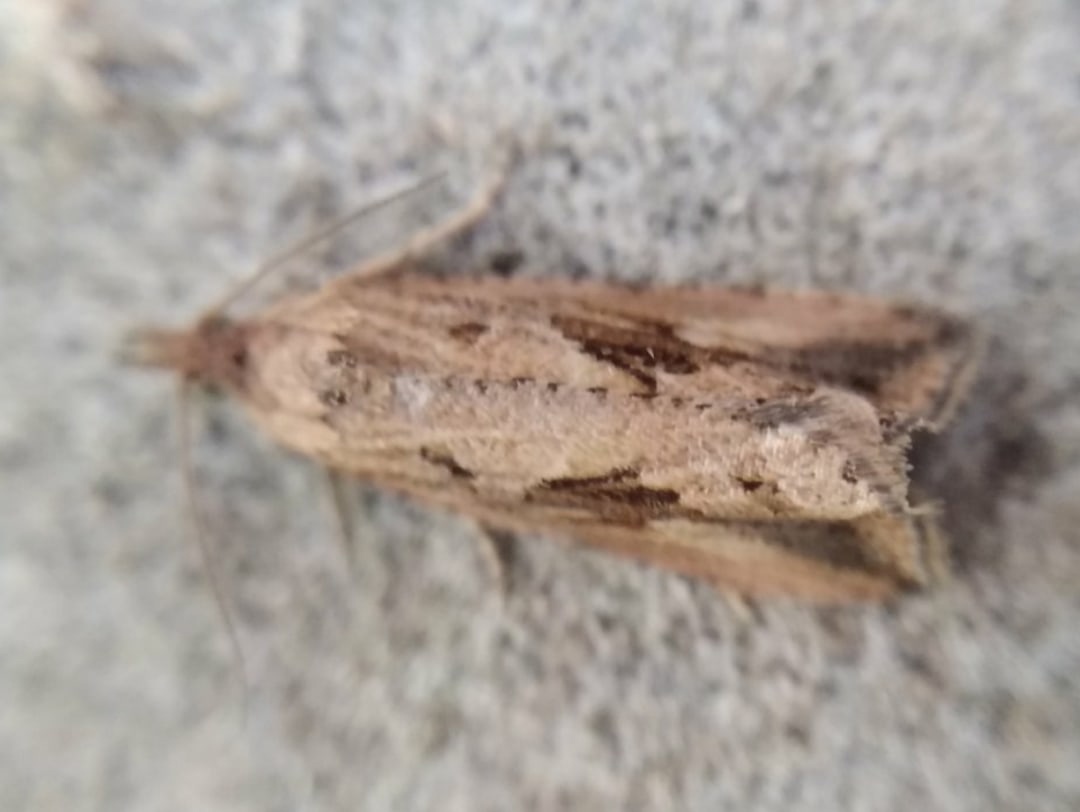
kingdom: Animalia
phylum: Arthropoda
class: Insecta
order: Lepidoptera
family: Tortricidae
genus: Endothenia
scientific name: Endothenia quadrimaculana
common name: Tortricid moth
